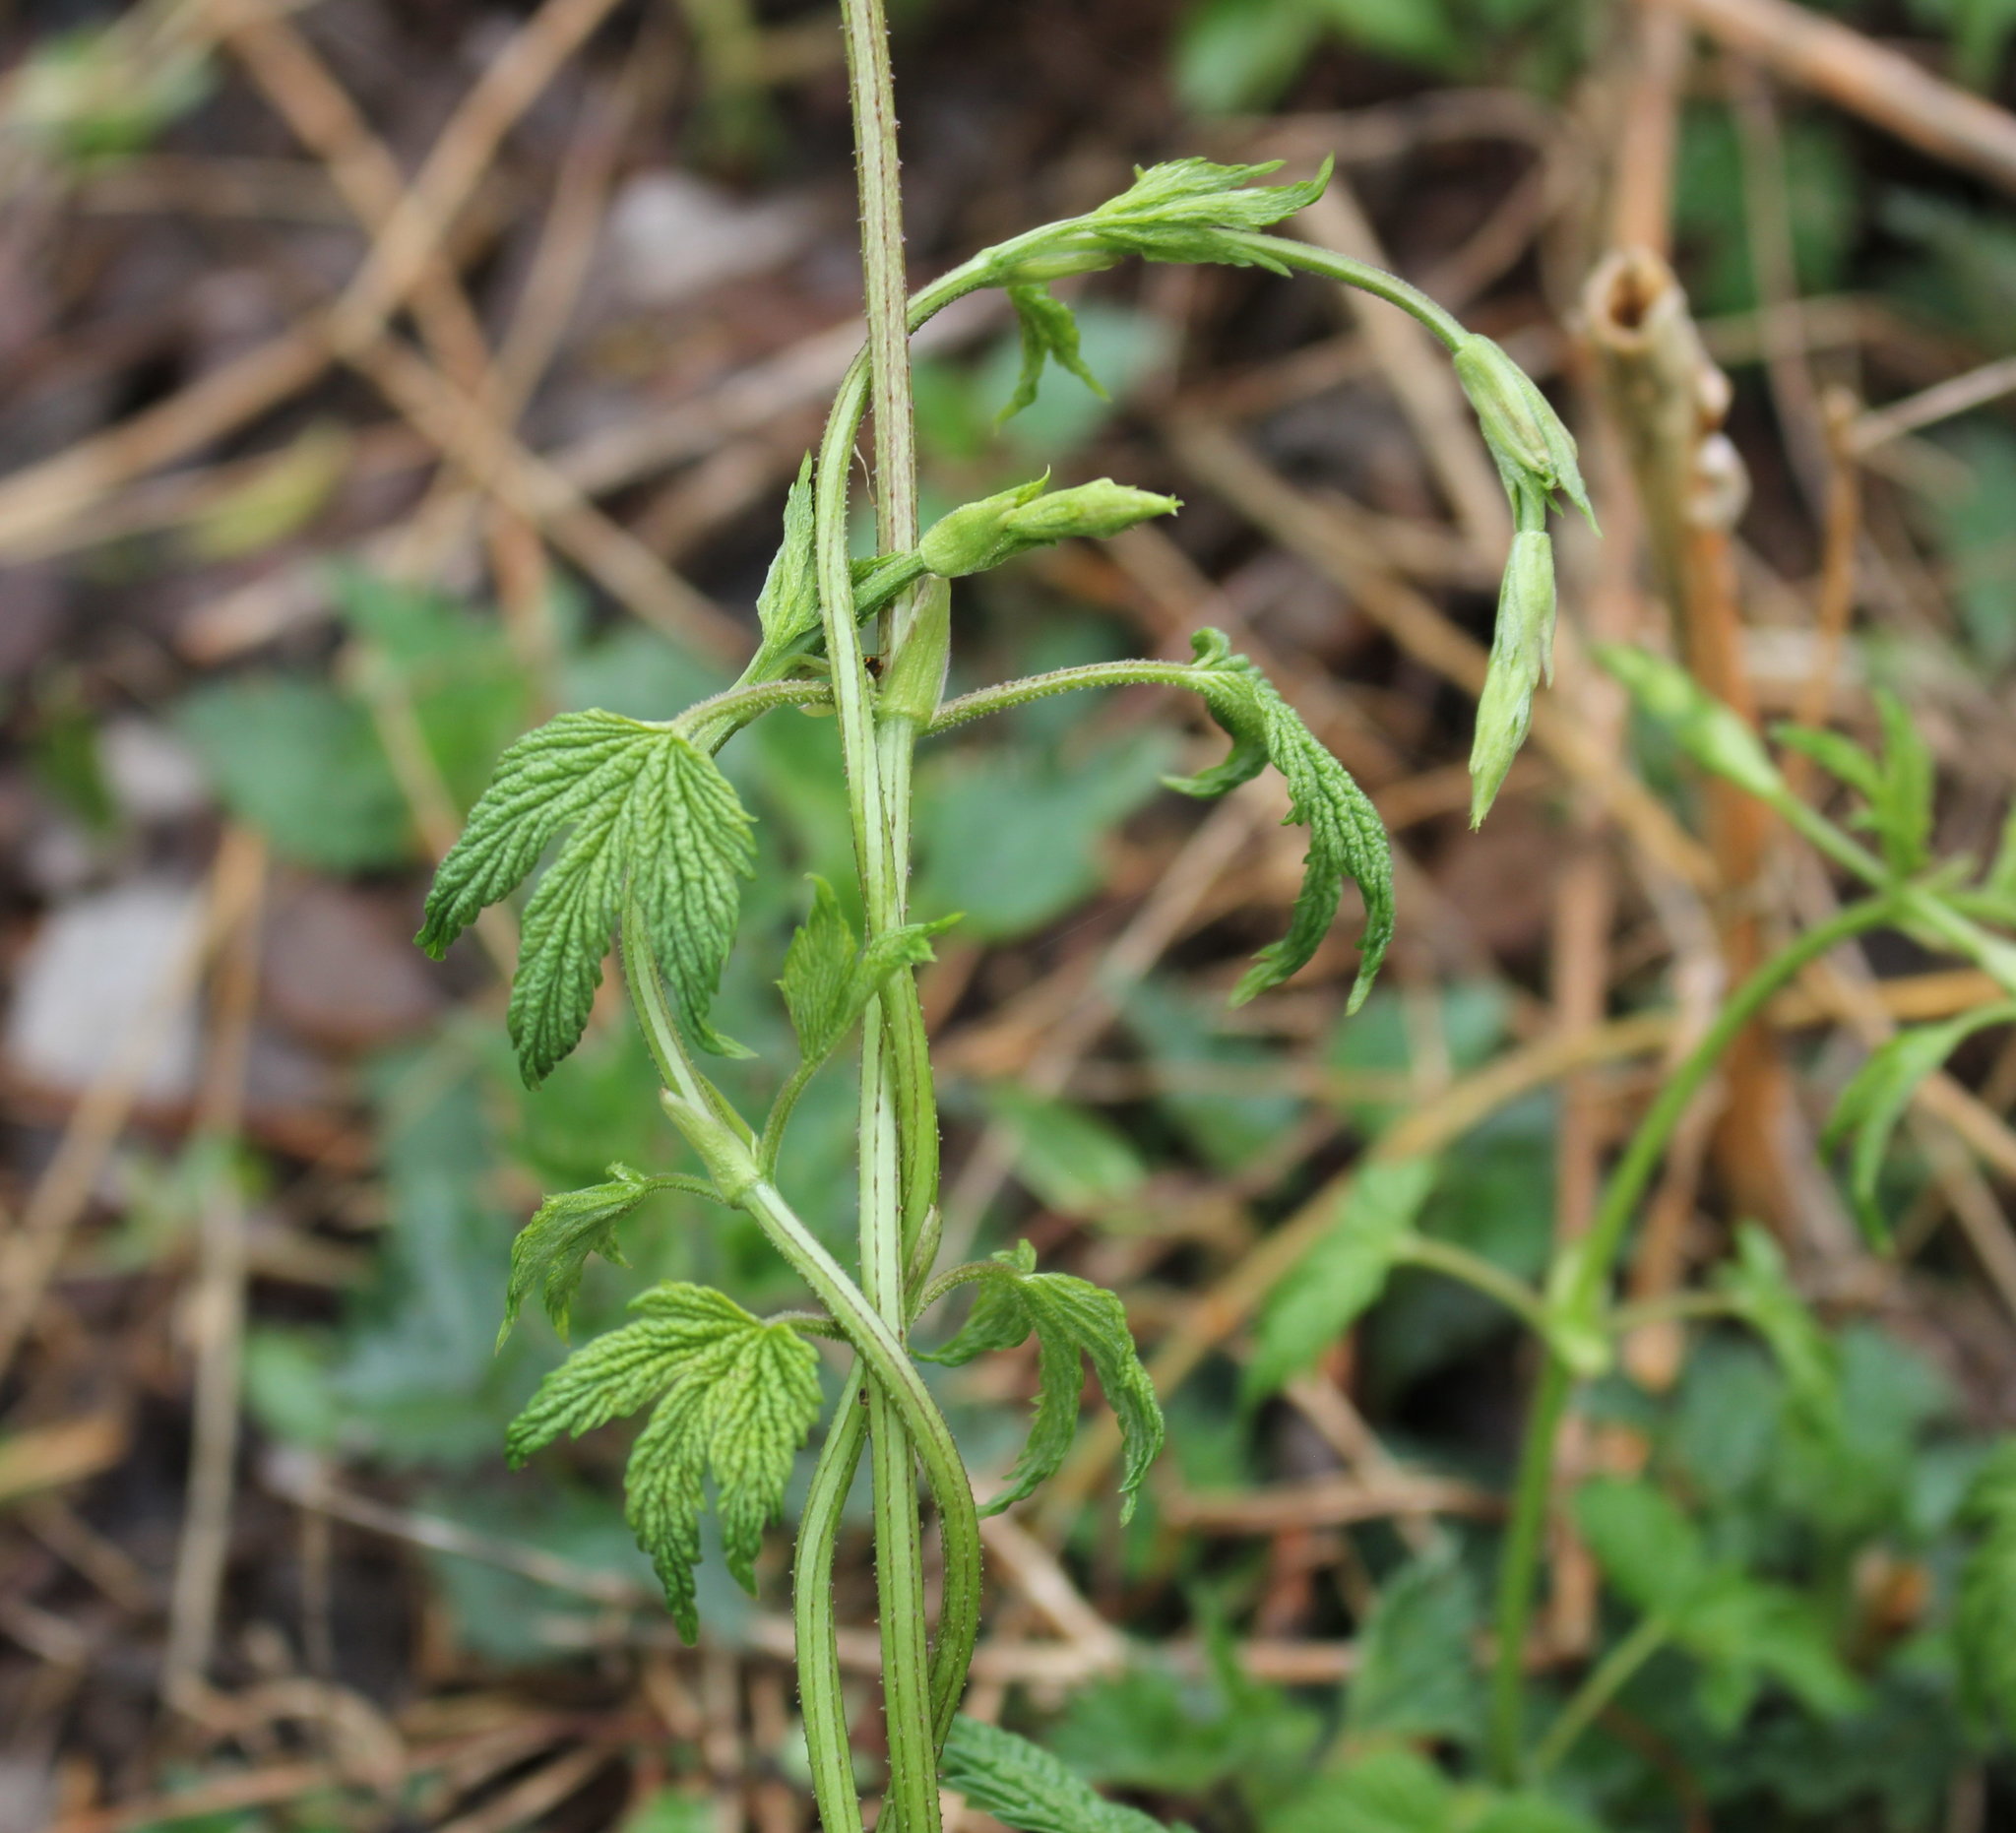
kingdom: Plantae
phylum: Tracheophyta
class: Magnoliopsida
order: Rosales
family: Cannabaceae
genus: Humulus
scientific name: Humulus lupulus
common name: Hop
